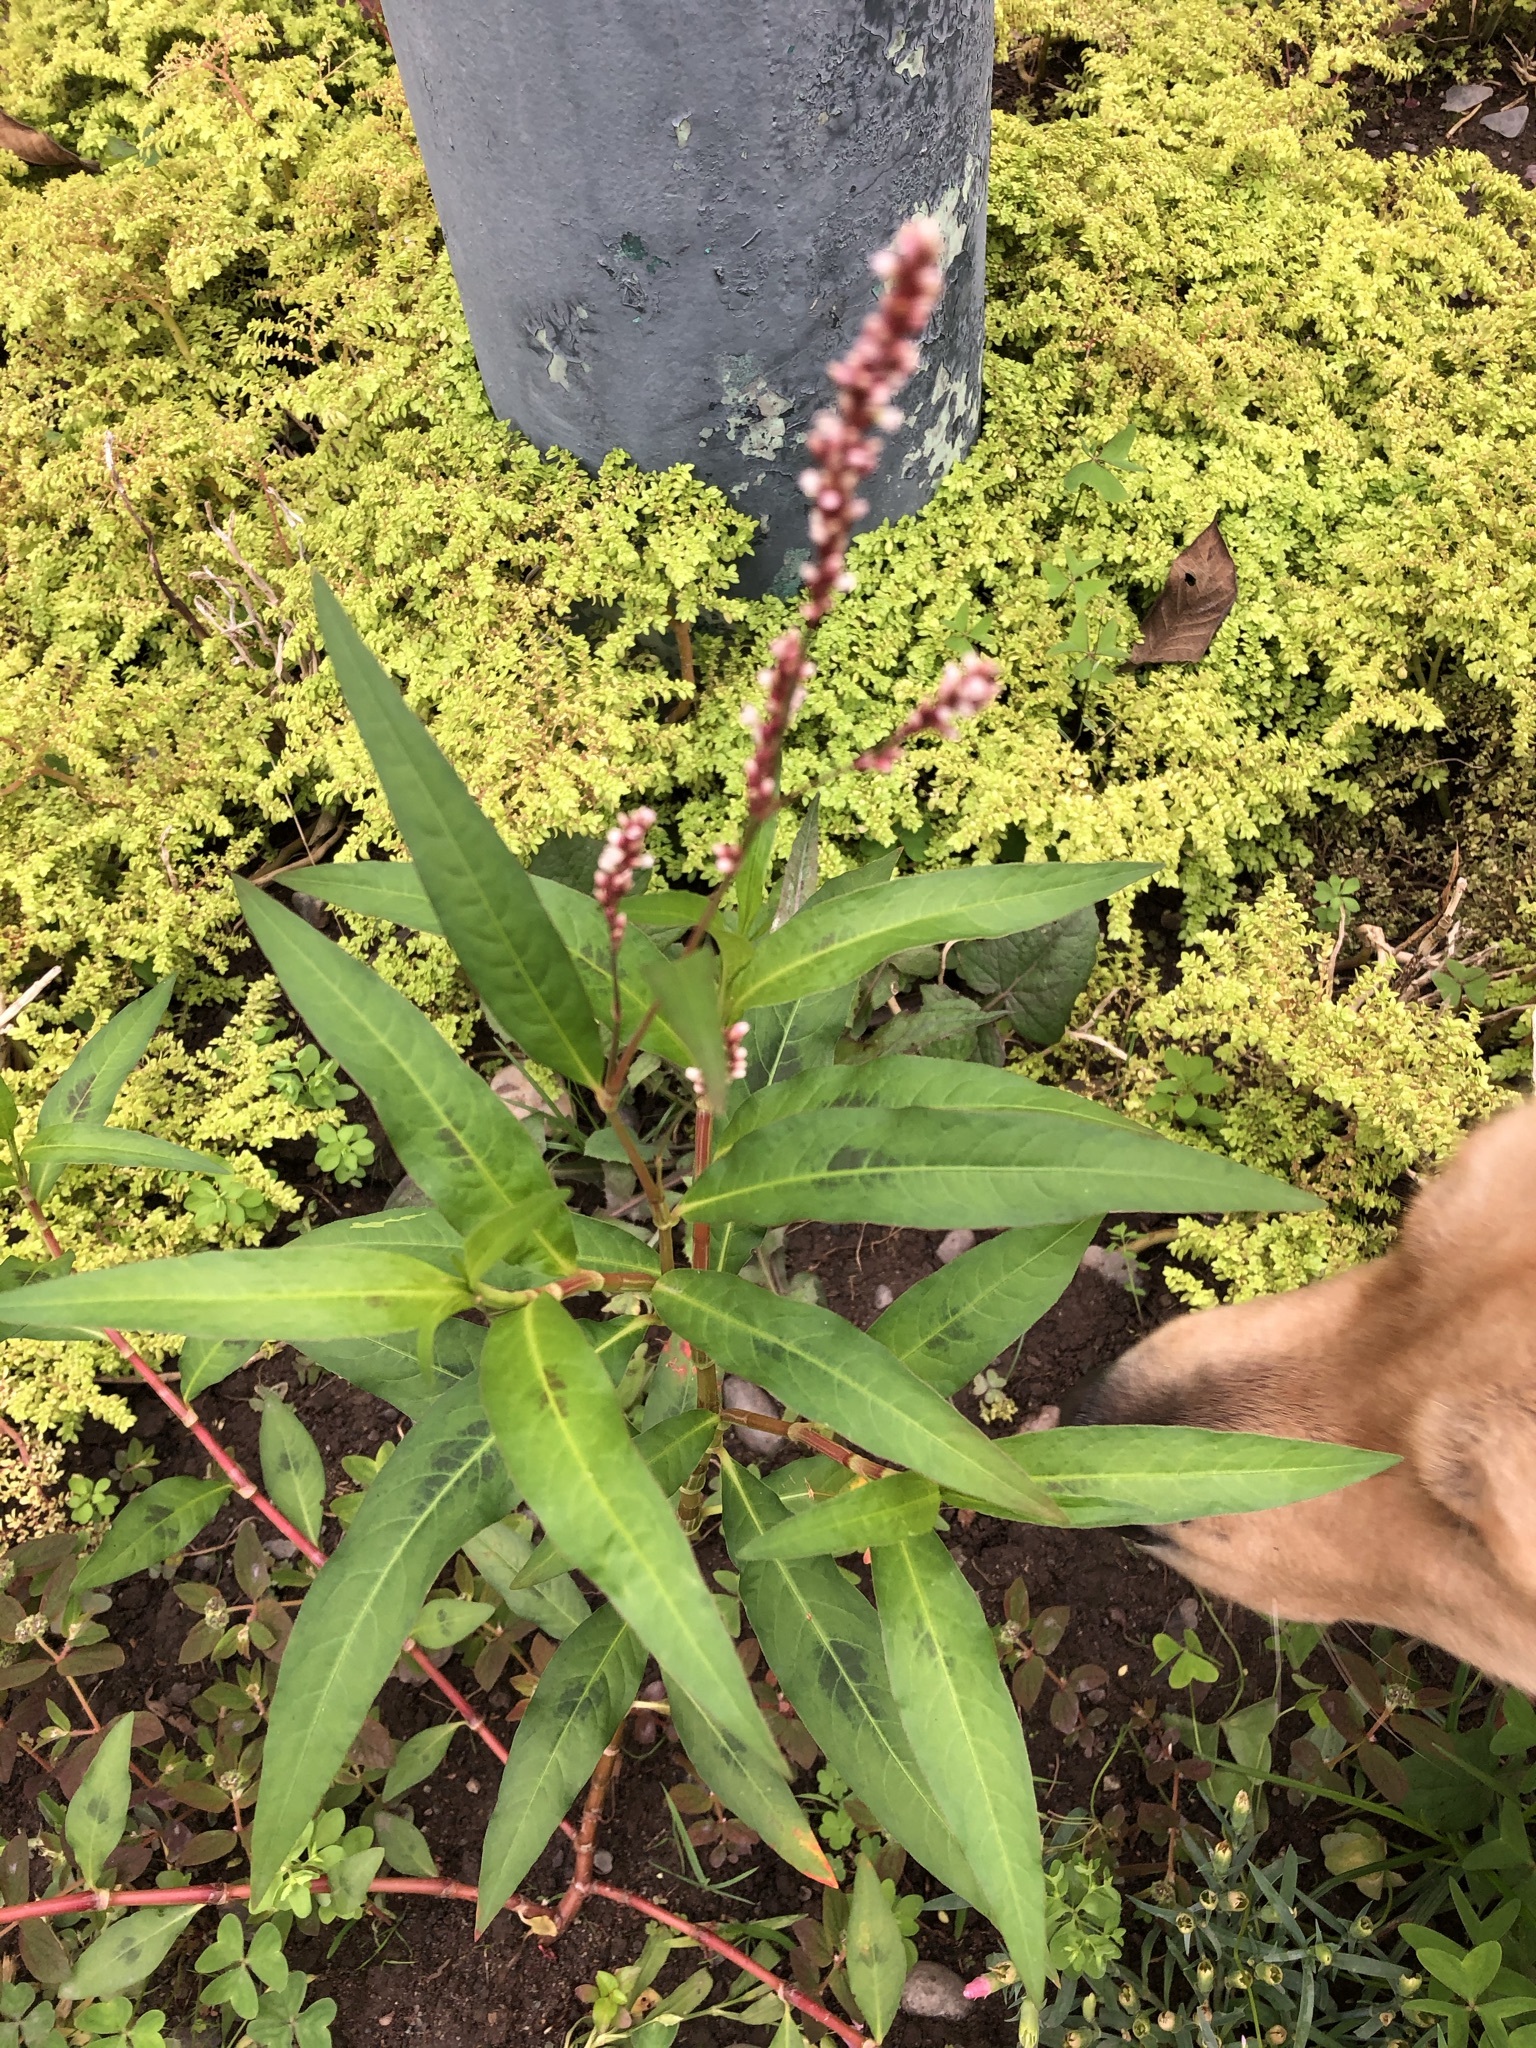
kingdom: Plantae
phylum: Tracheophyta
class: Magnoliopsida
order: Caryophyllales
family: Polygonaceae
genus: Persicaria
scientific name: Persicaria hydropiperoides
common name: Swamp smartweed
